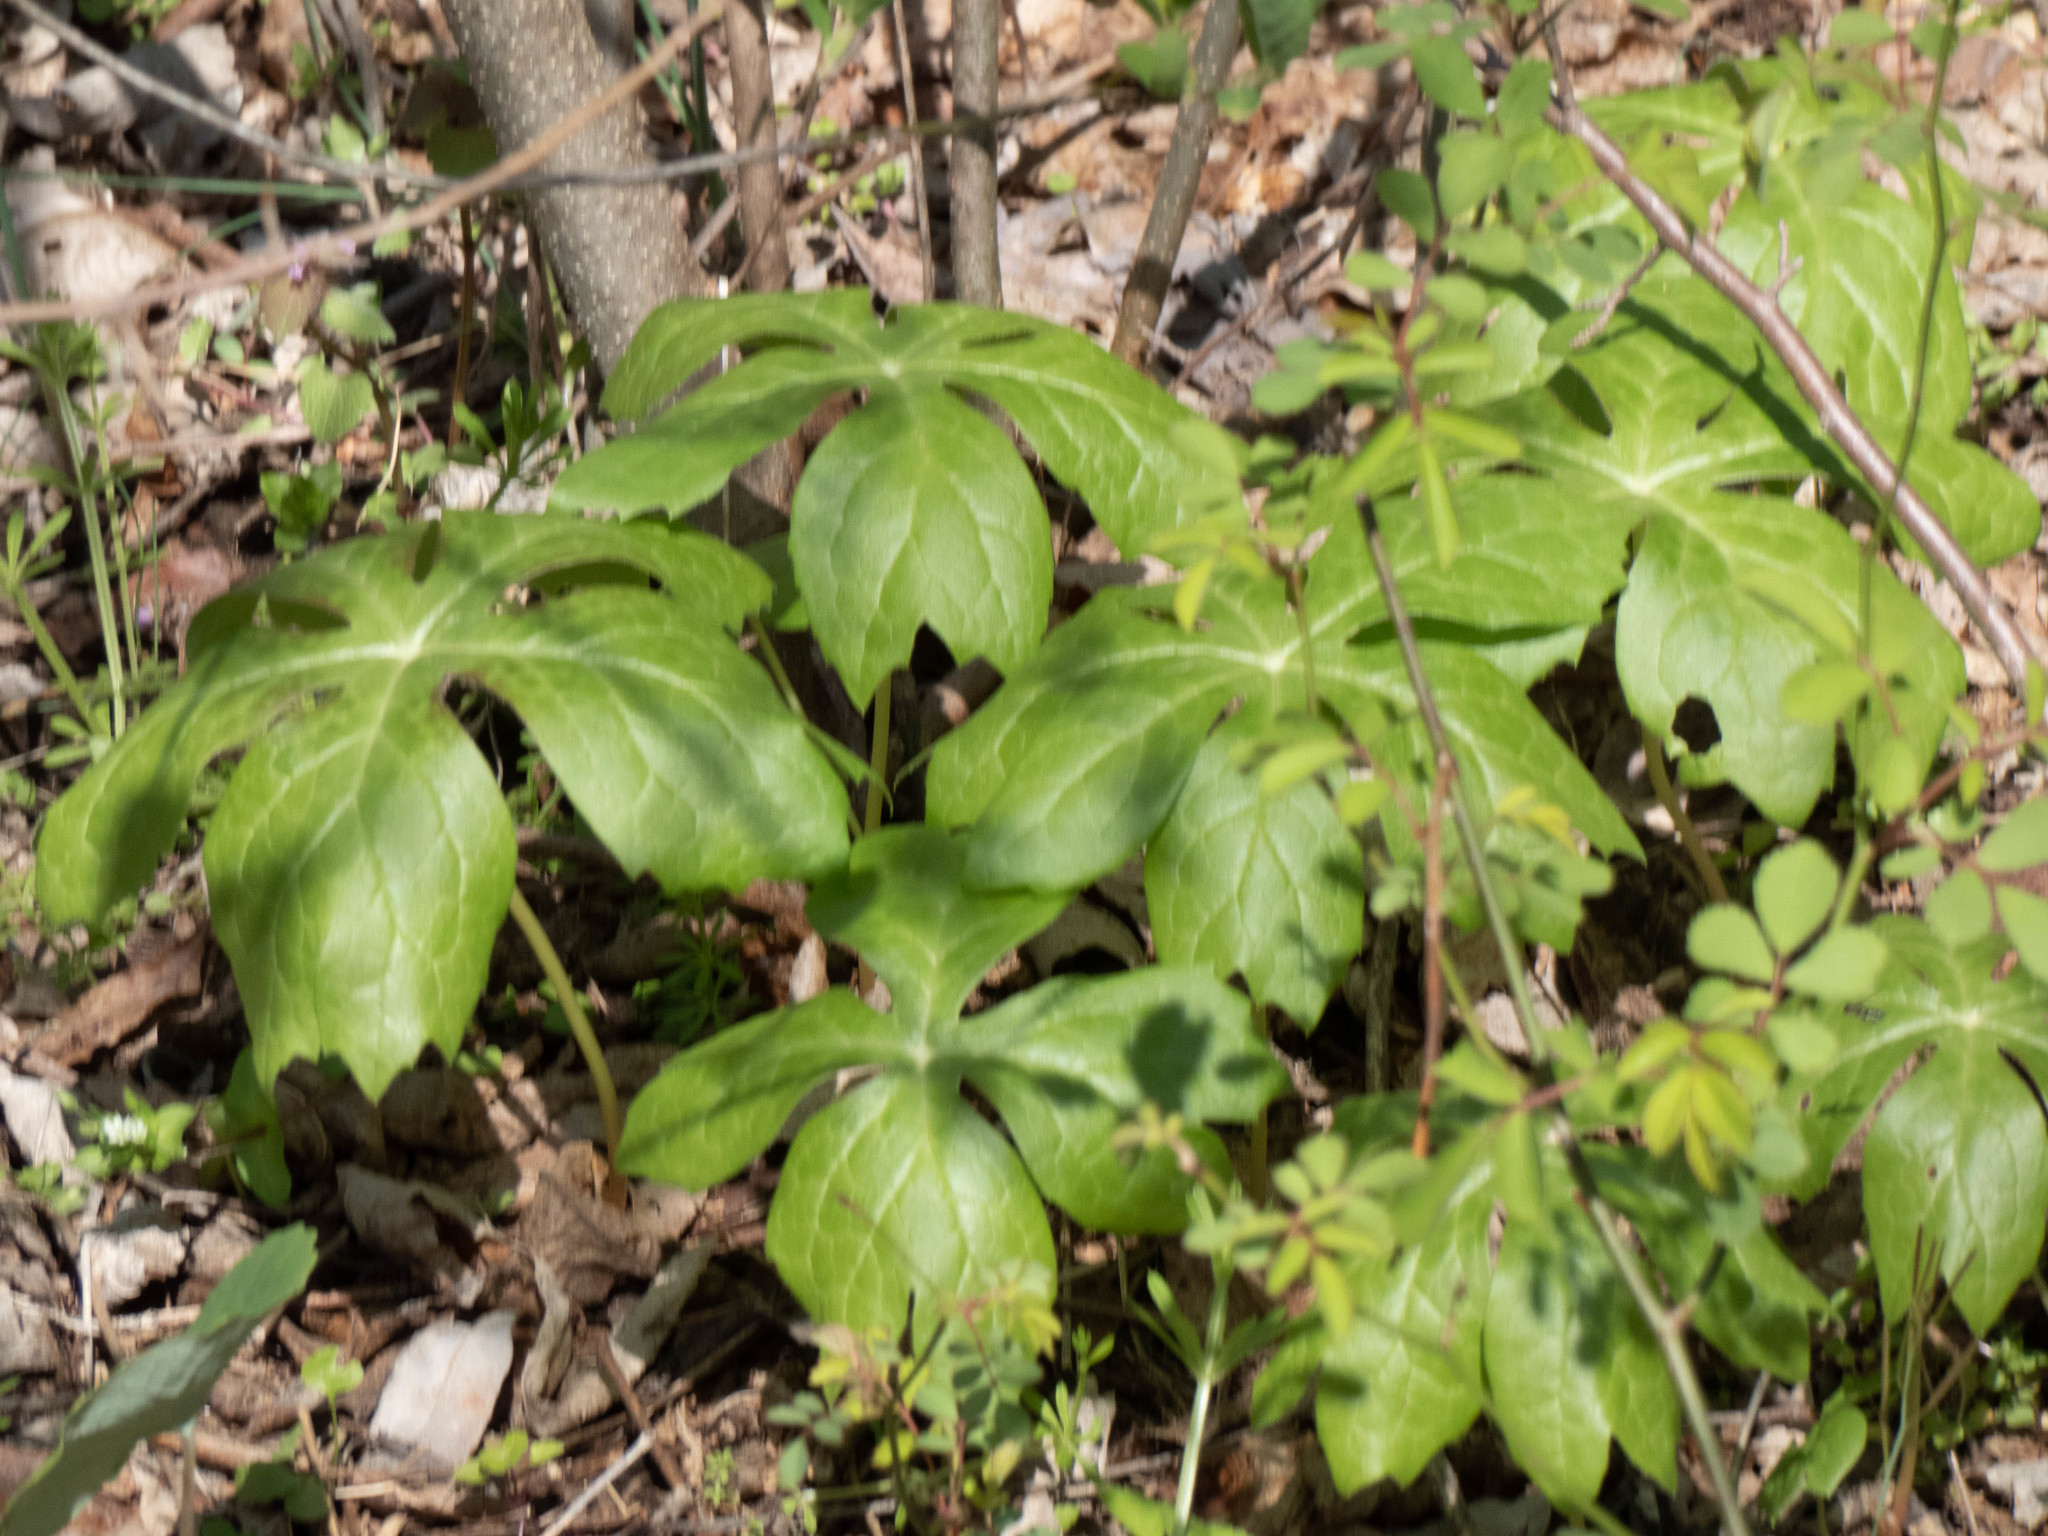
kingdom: Plantae
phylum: Tracheophyta
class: Magnoliopsida
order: Ranunculales
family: Berberidaceae
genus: Podophyllum
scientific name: Podophyllum peltatum
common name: Wild mandrake
